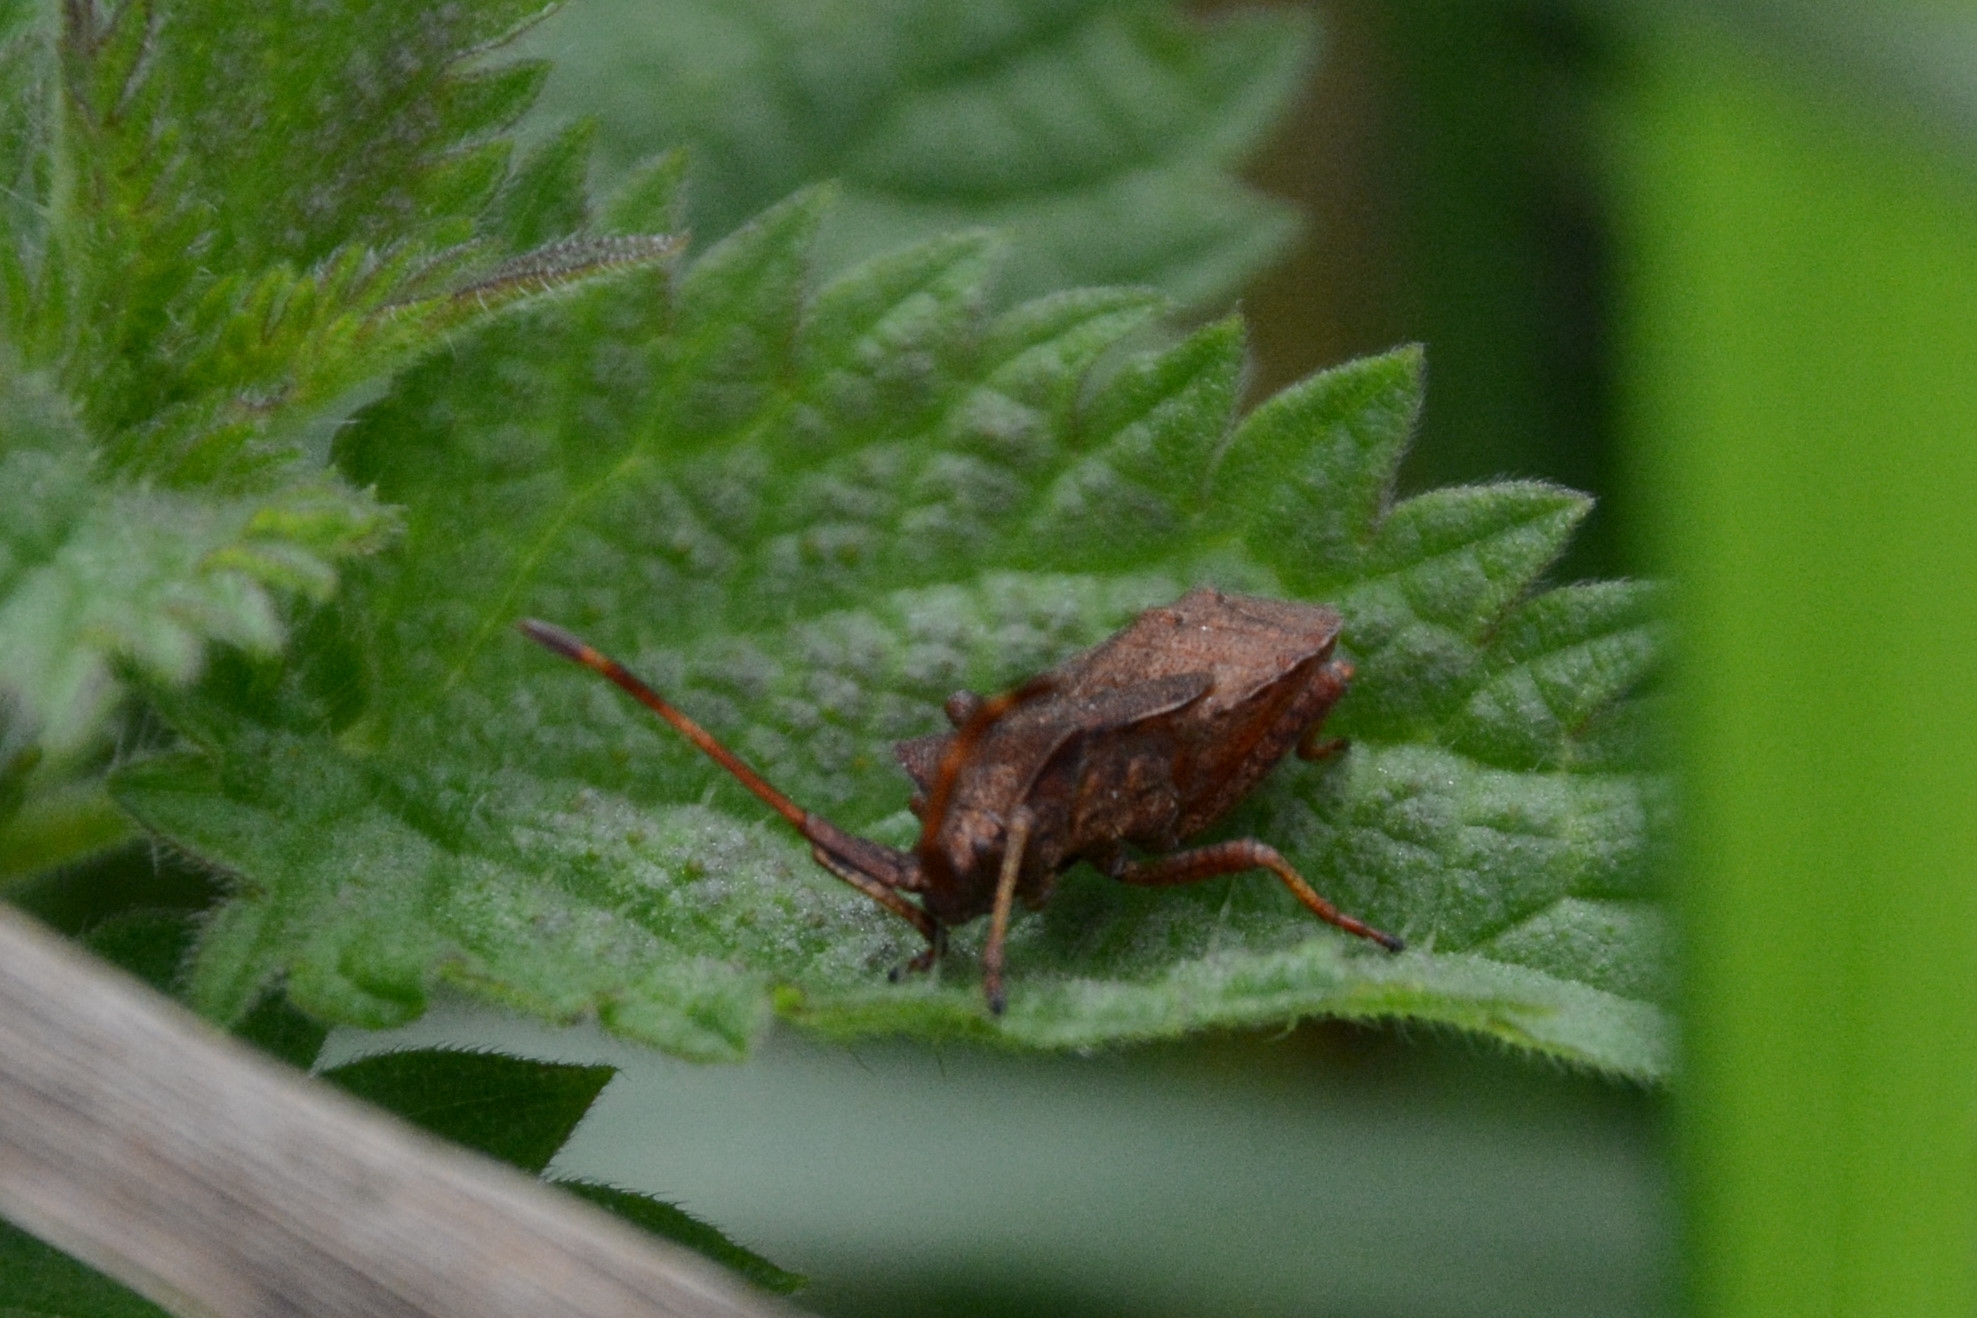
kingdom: Animalia
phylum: Arthropoda
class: Insecta
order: Hemiptera
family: Coreidae
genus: Coreus
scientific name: Coreus marginatus
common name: Dock bug
